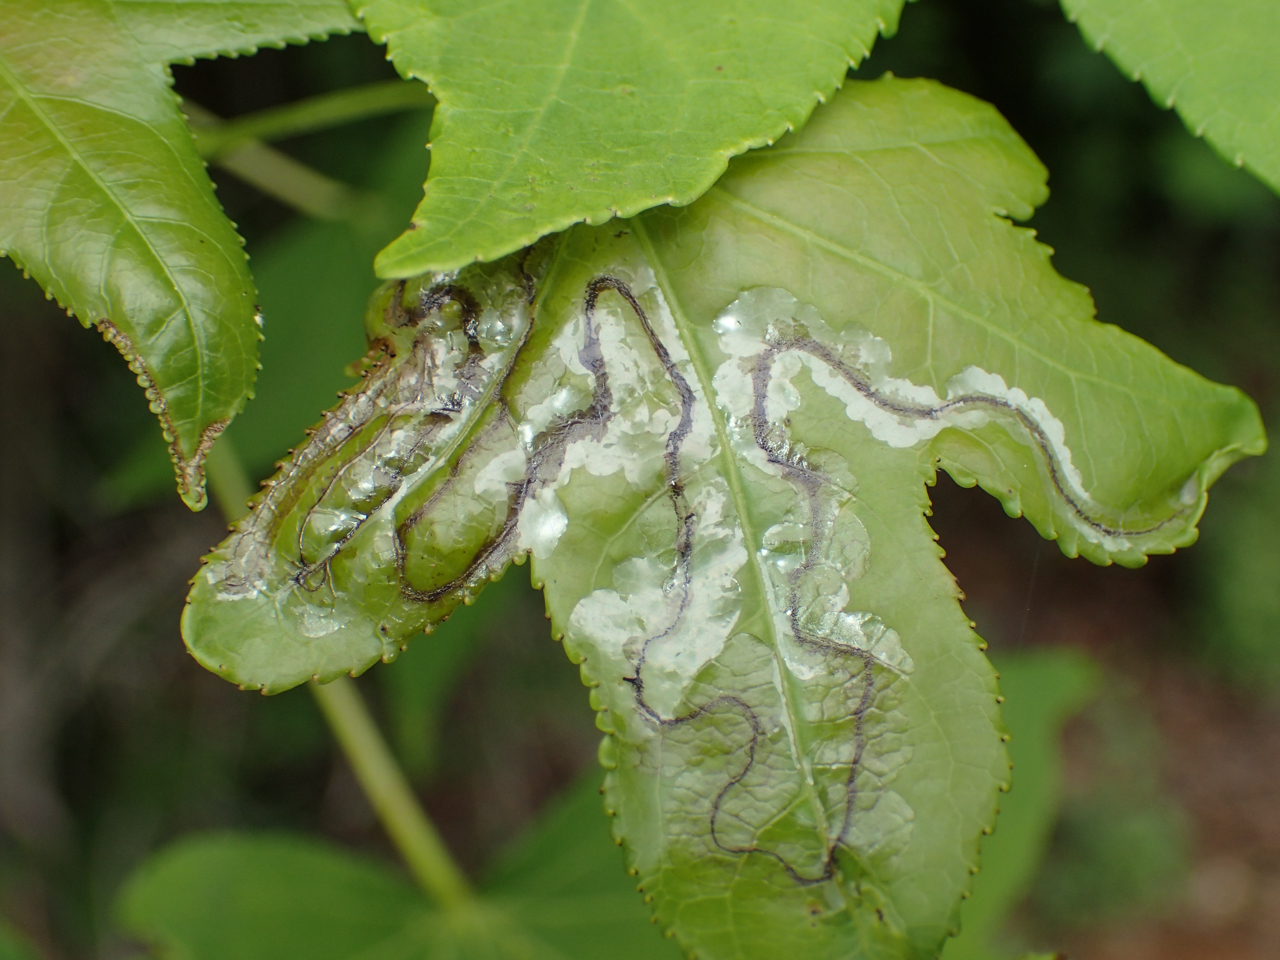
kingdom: Animalia
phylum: Arthropoda
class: Insecta
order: Lepidoptera
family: Gracillariidae
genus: Phyllocnistis
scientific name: Phyllocnistis liquidambarisella
